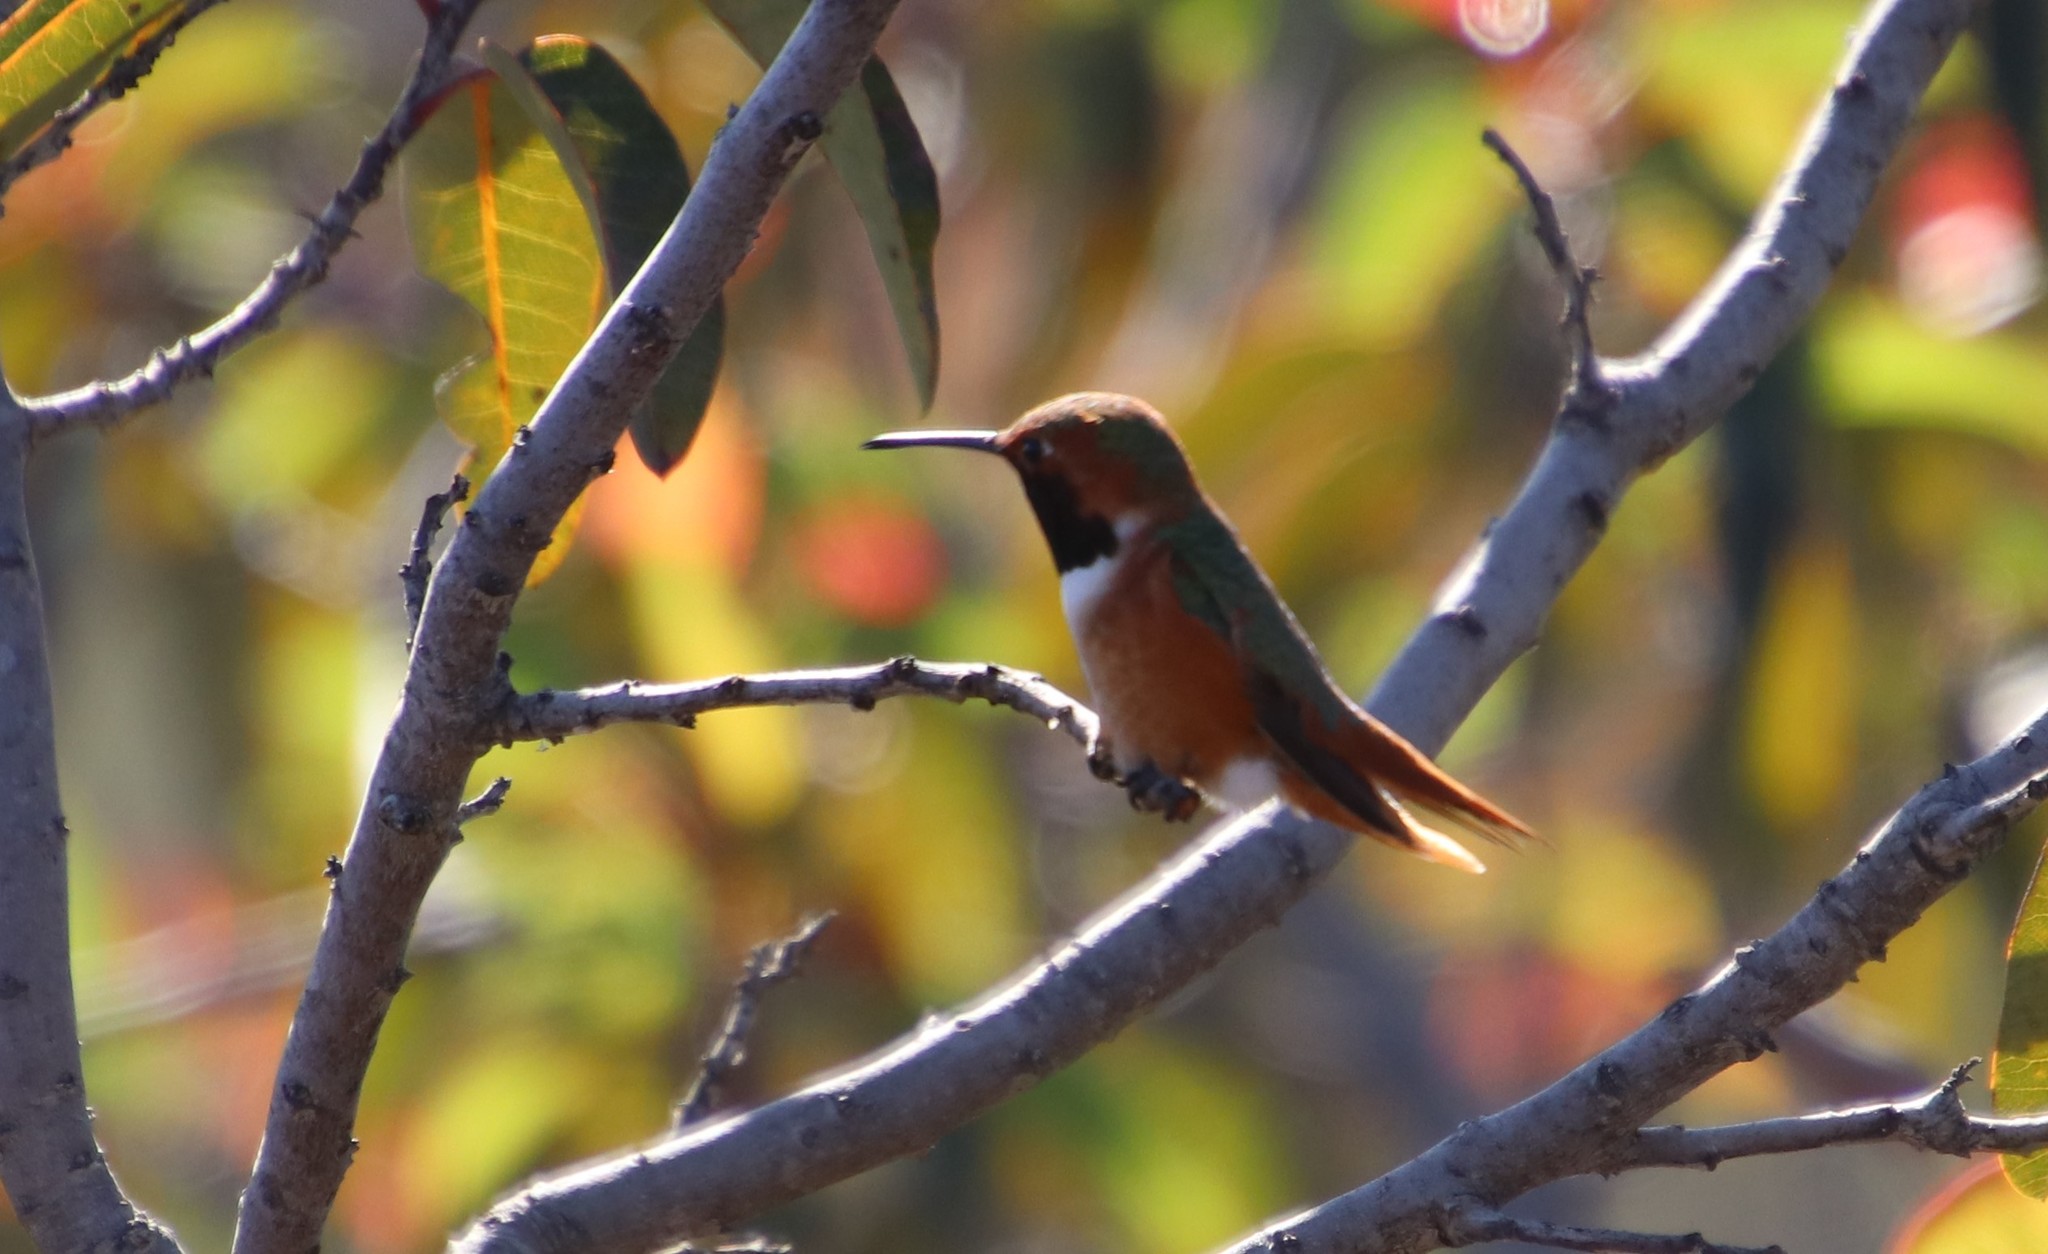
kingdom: Animalia
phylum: Chordata
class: Aves
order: Apodiformes
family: Trochilidae
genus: Selasphorus
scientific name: Selasphorus sasin
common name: Allen's hummingbird
